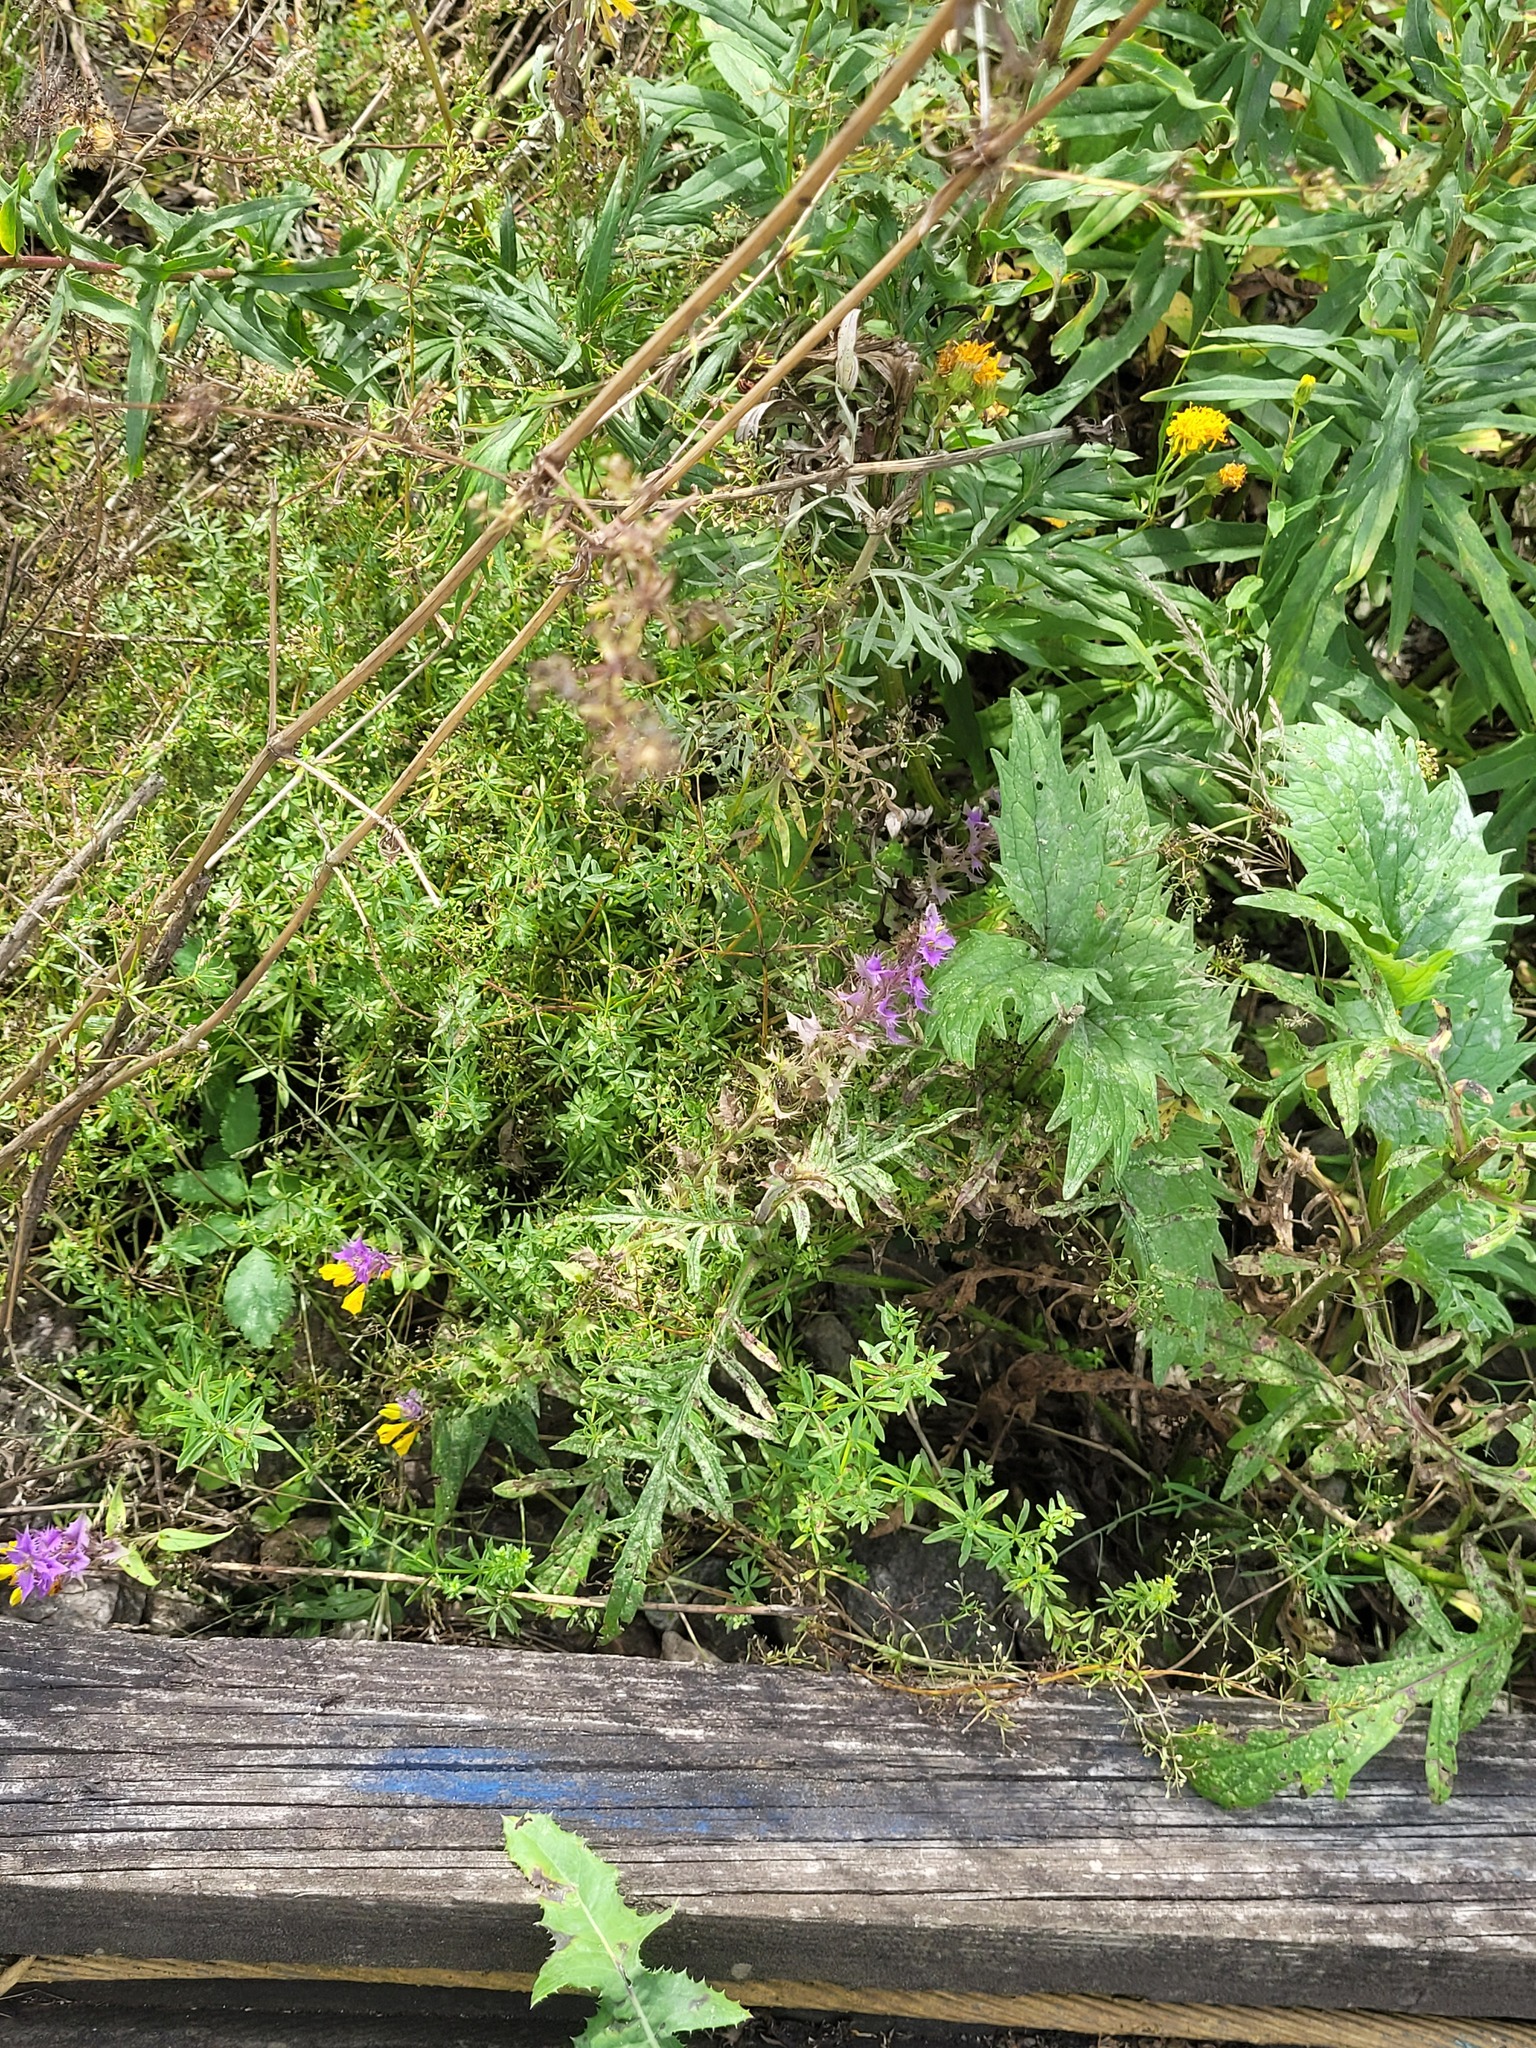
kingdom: Plantae
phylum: Tracheophyta
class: Magnoliopsida
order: Dipsacales
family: Caprifoliaceae
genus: Knautia
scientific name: Knautia arvensis
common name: Field scabiosa
